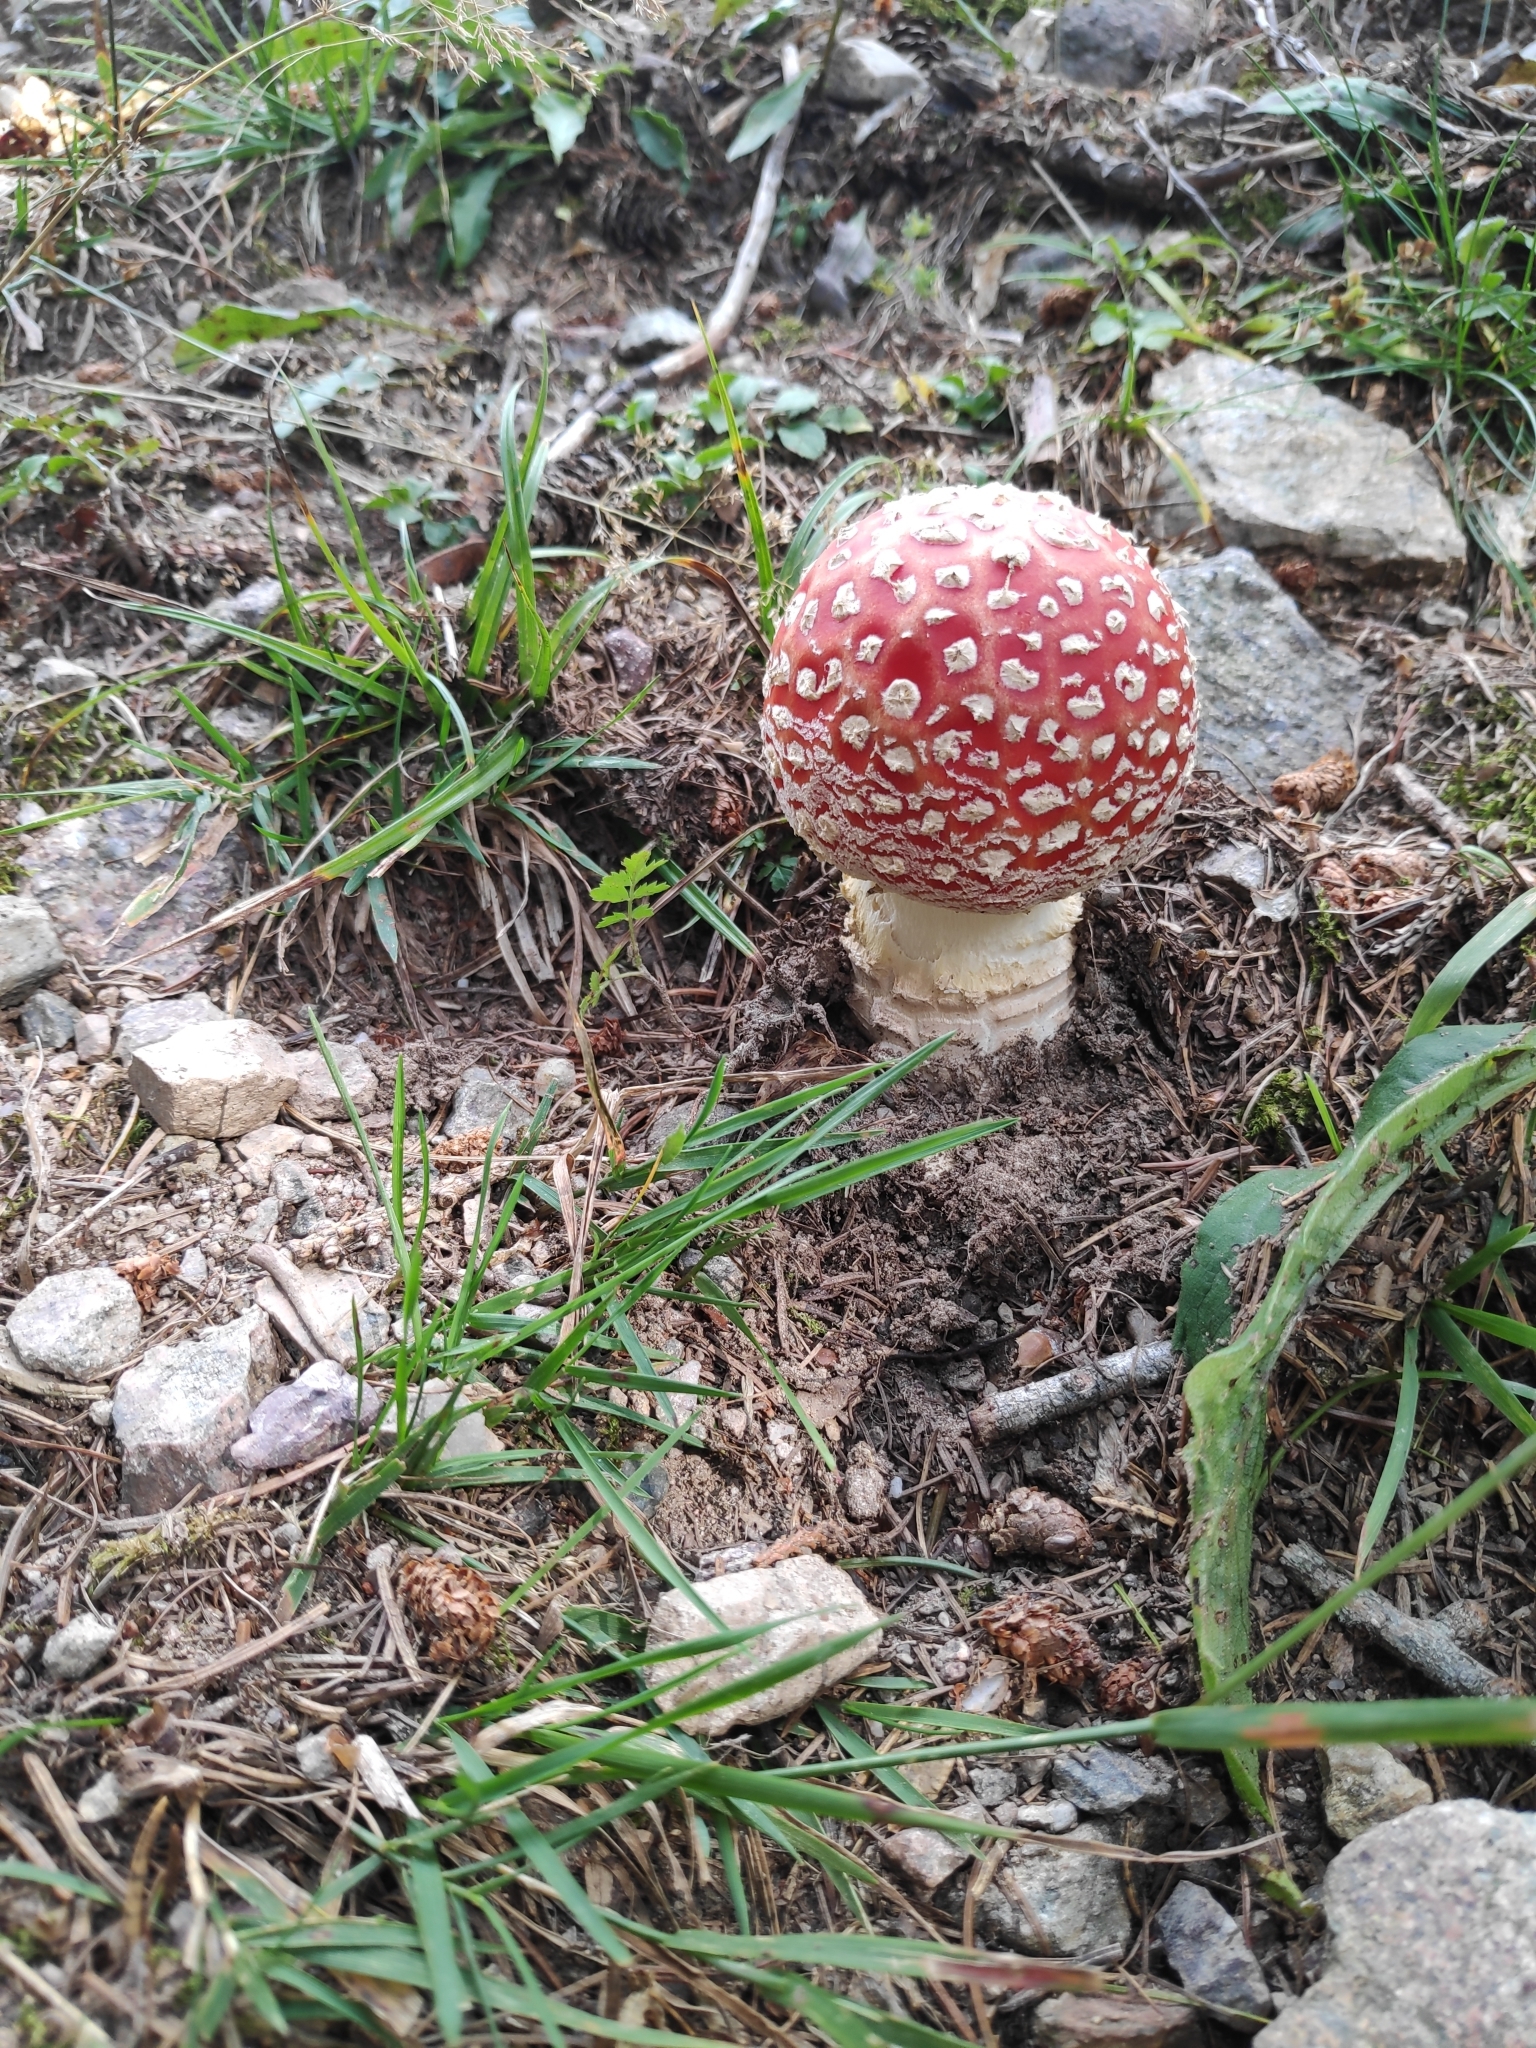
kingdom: Fungi
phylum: Basidiomycota
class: Agaricomycetes
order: Agaricales
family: Amanitaceae
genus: Amanita
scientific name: Amanita muscaria
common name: Fly agaric
